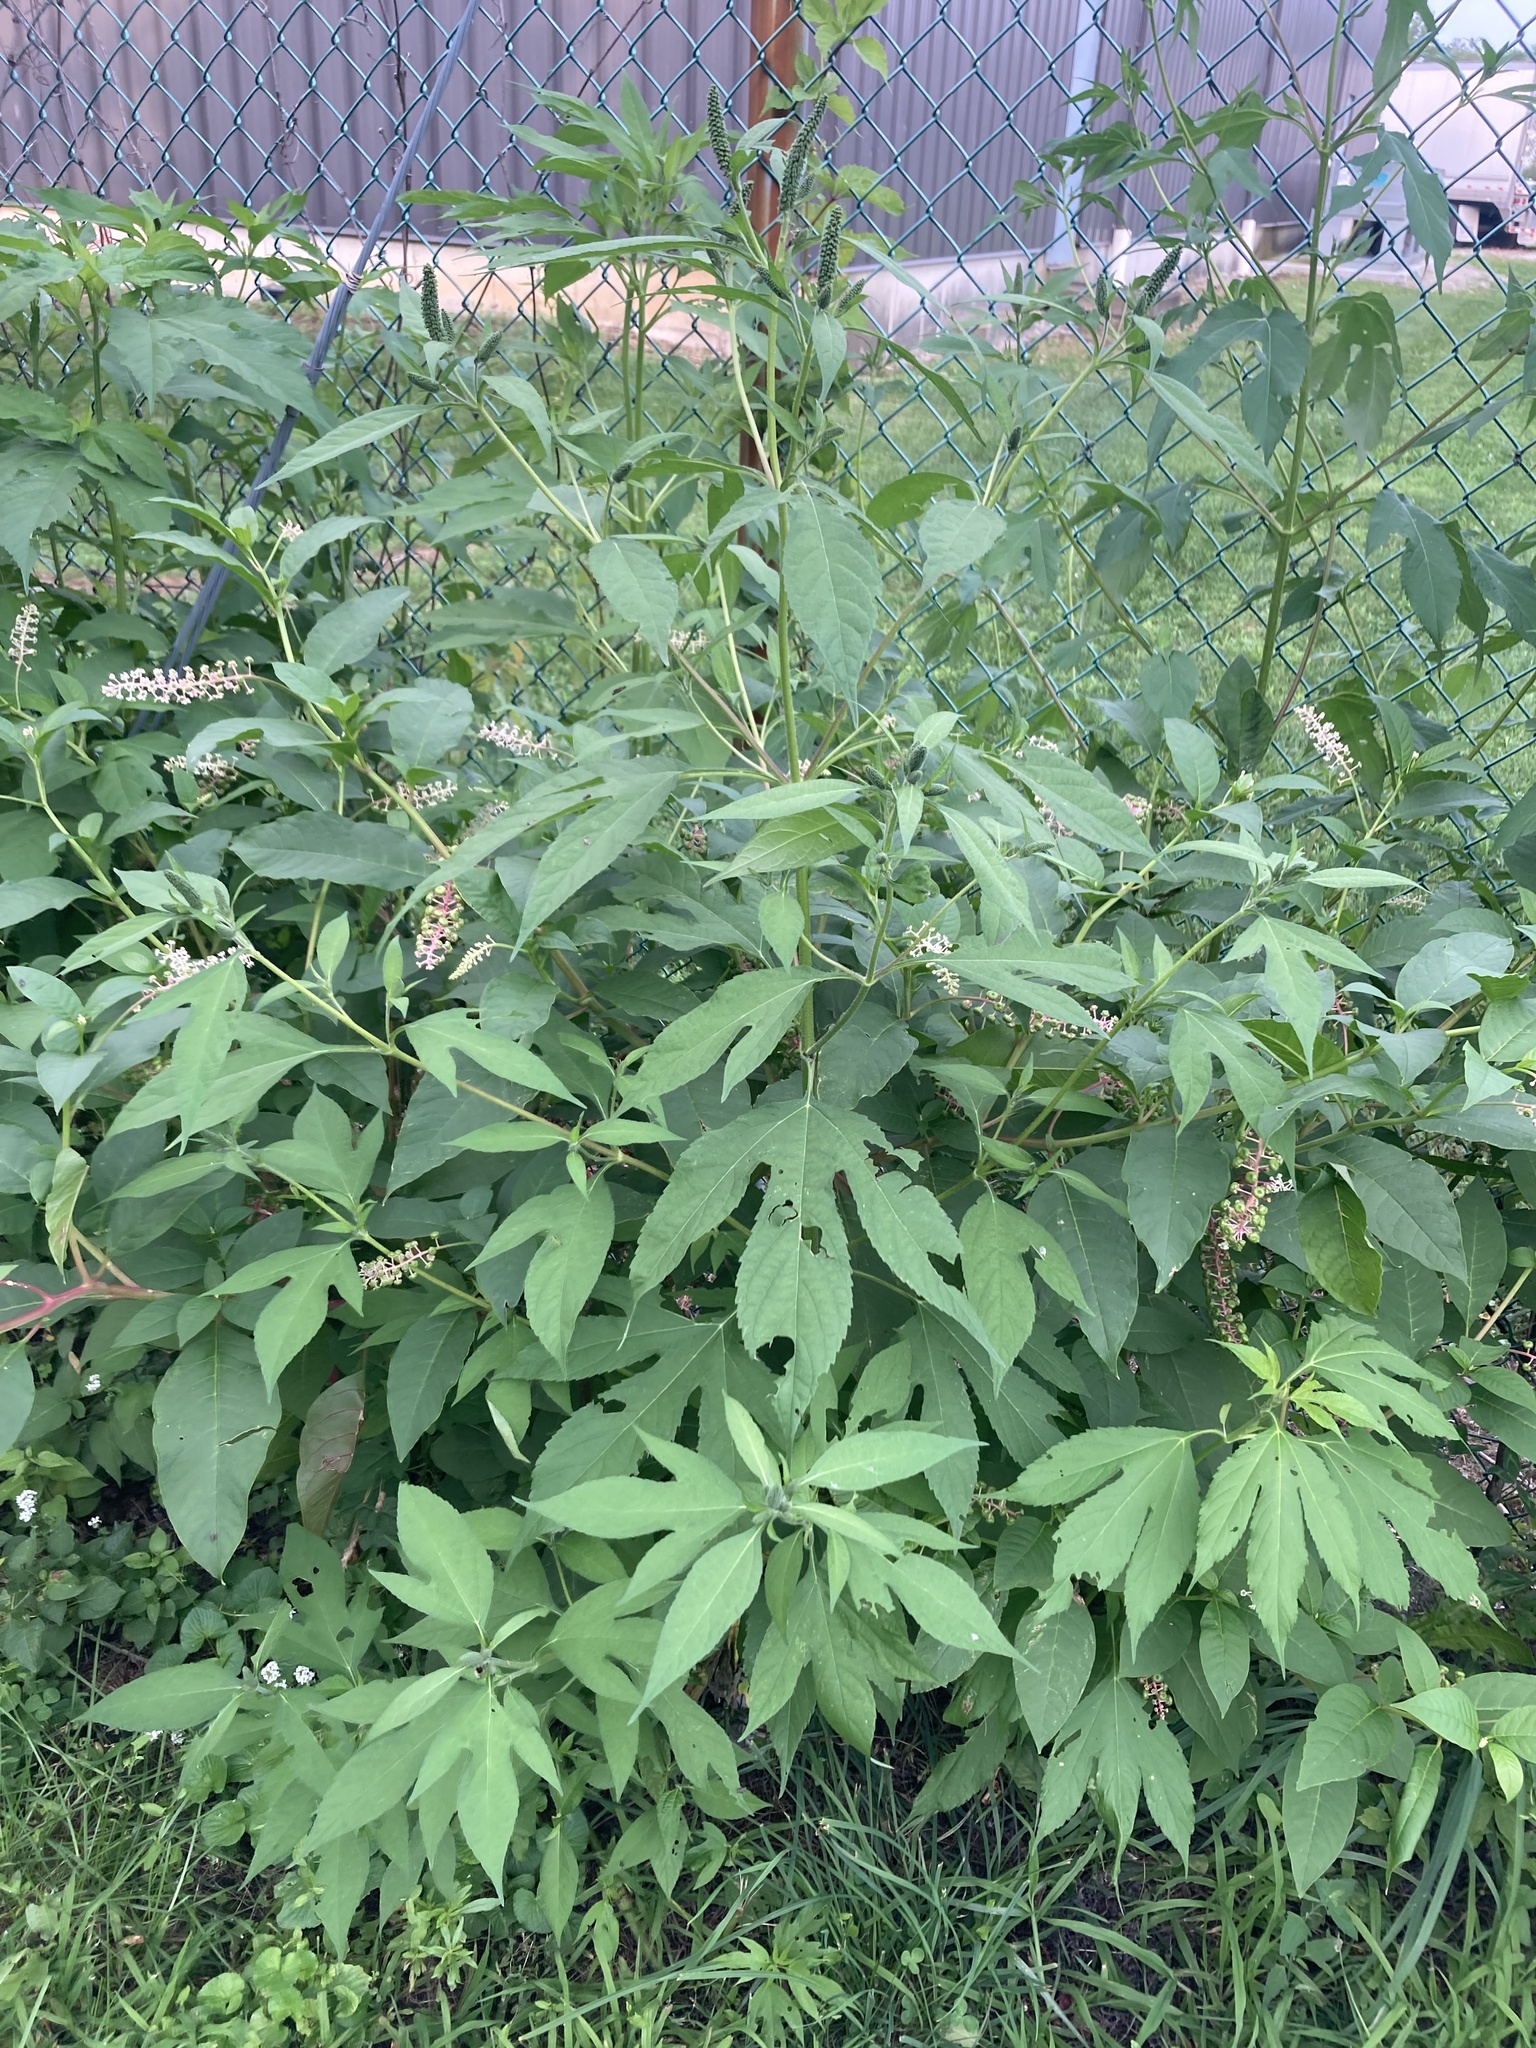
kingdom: Plantae
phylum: Tracheophyta
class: Magnoliopsida
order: Asterales
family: Asteraceae
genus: Ambrosia
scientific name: Ambrosia trifida
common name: Giant ragweed
